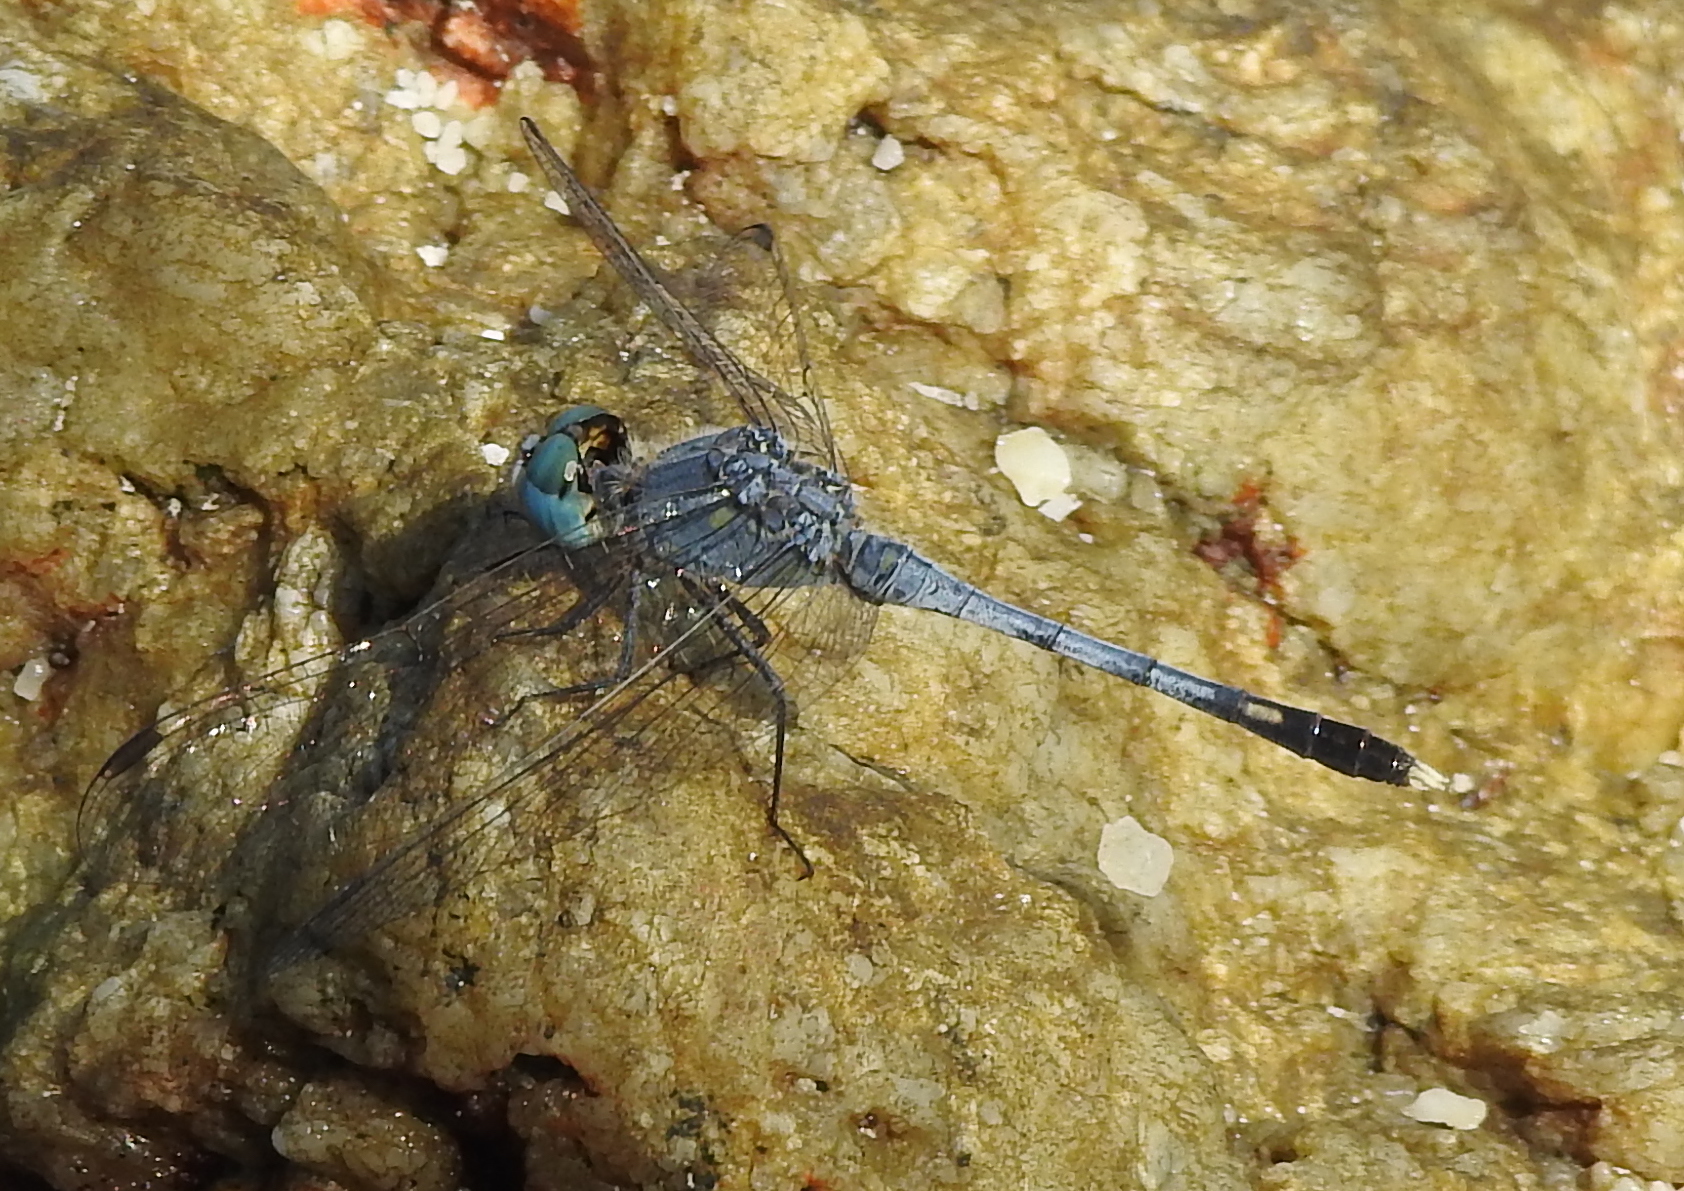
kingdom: Animalia
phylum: Arthropoda
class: Insecta
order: Odonata
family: Libellulidae
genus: Diplacodes
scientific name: Diplacodes trivialis
